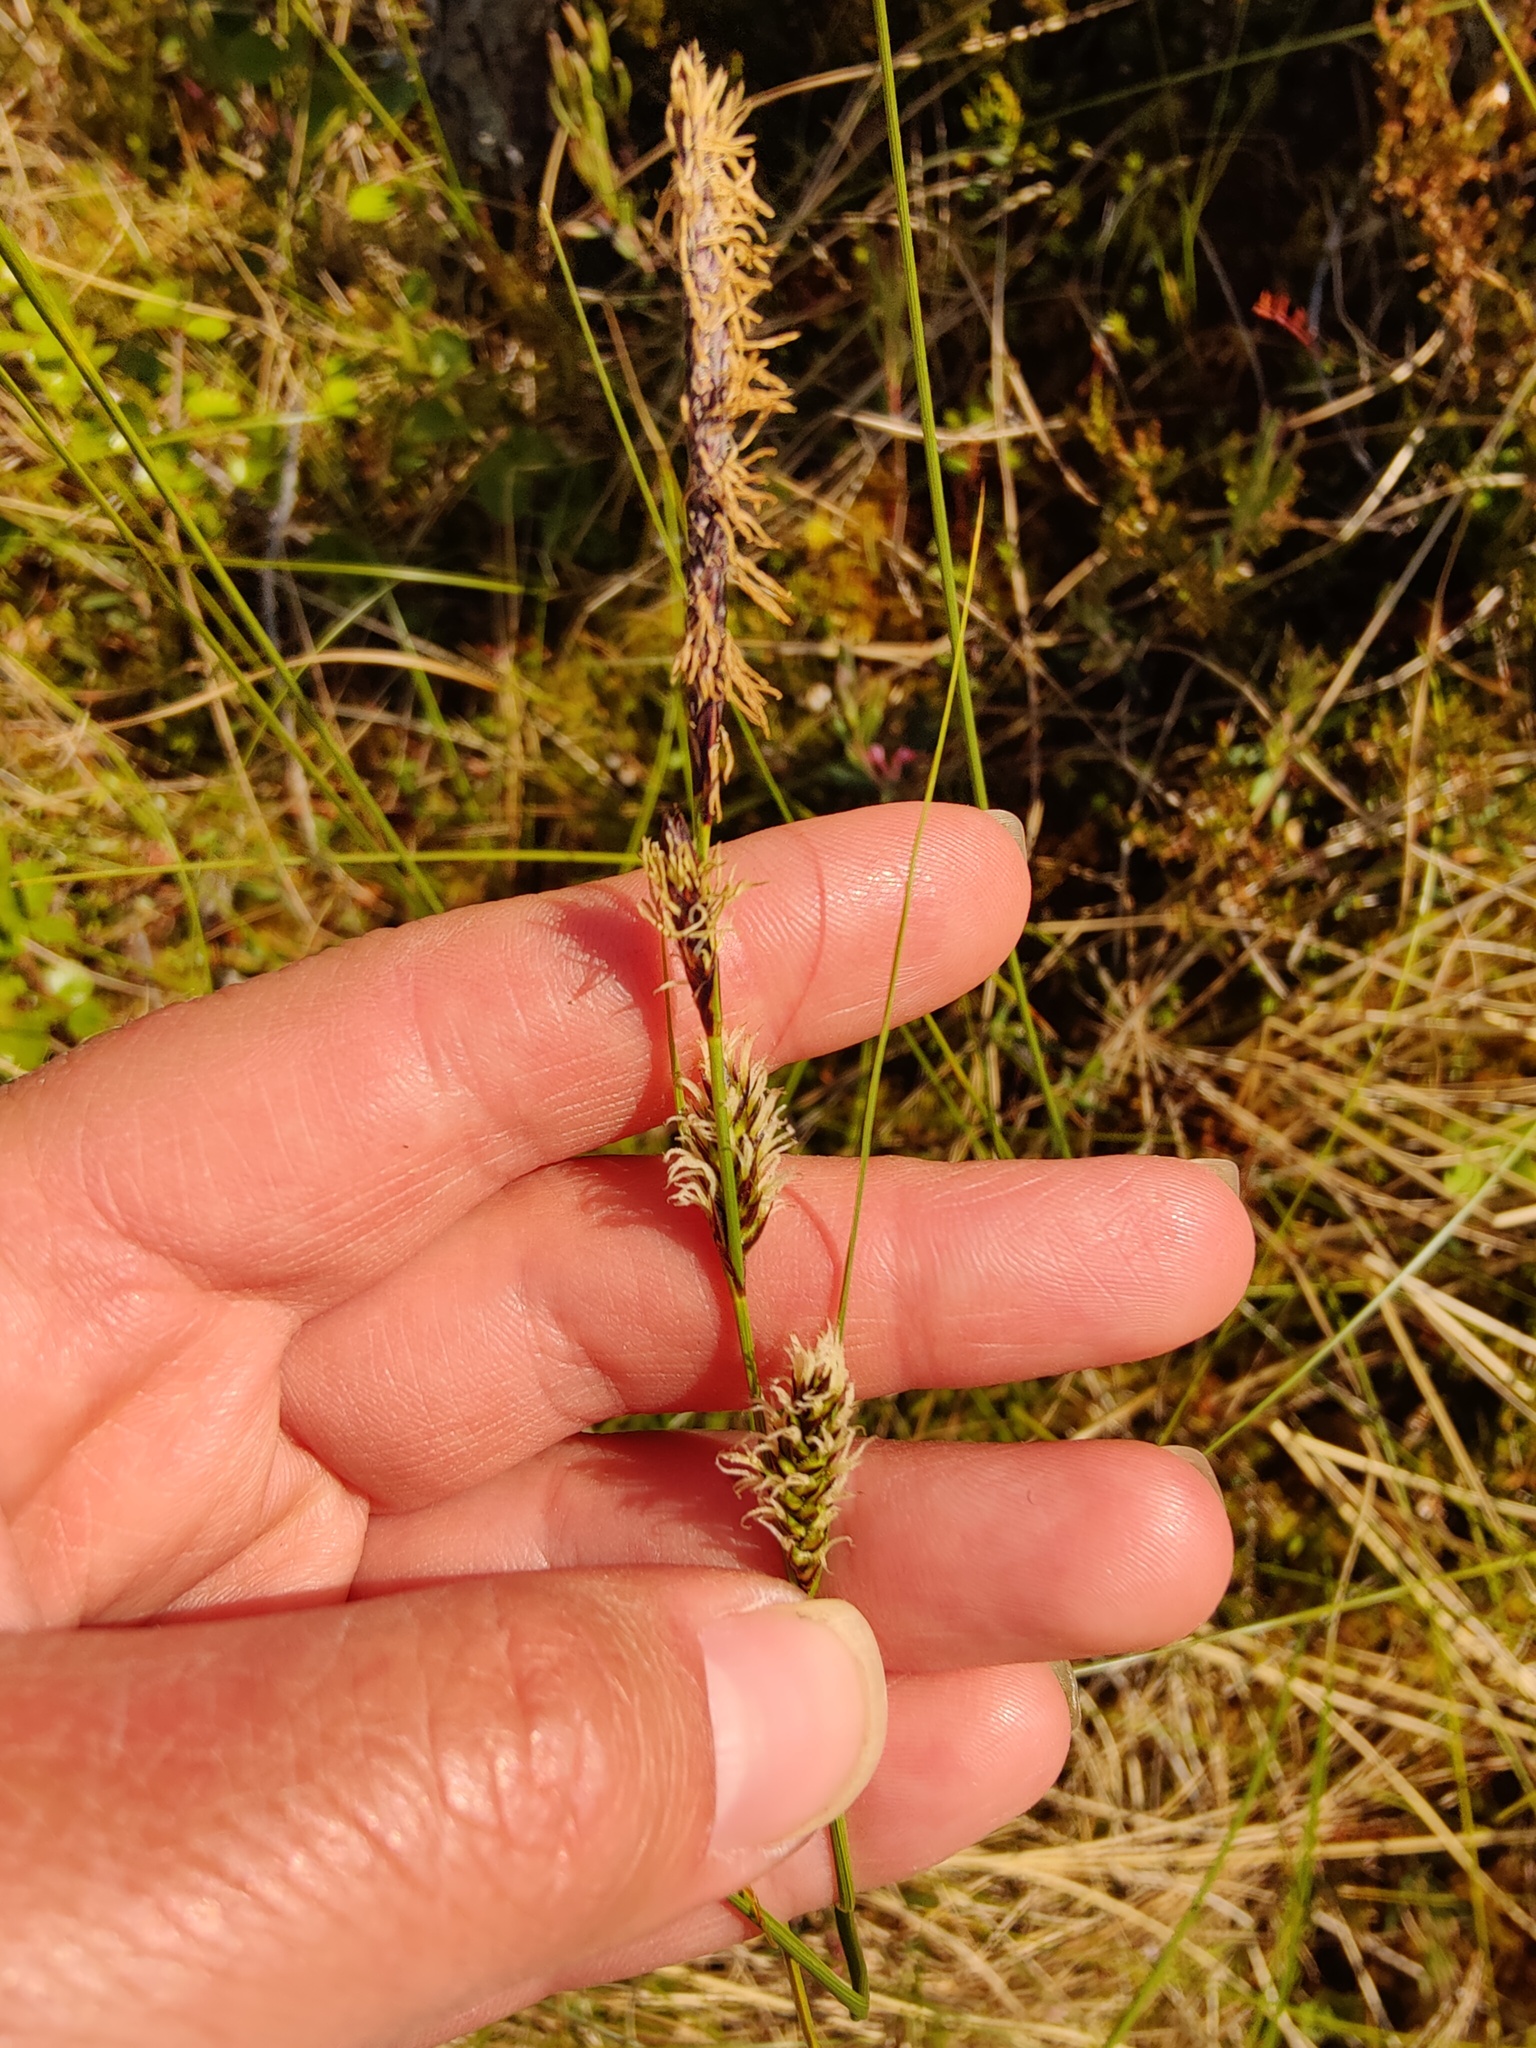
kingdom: Plantae
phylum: Tracheophyta
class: Liliopsida
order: Poales
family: Cyperaceae
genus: Carex
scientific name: Carex saxatilis
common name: Russet sedge
